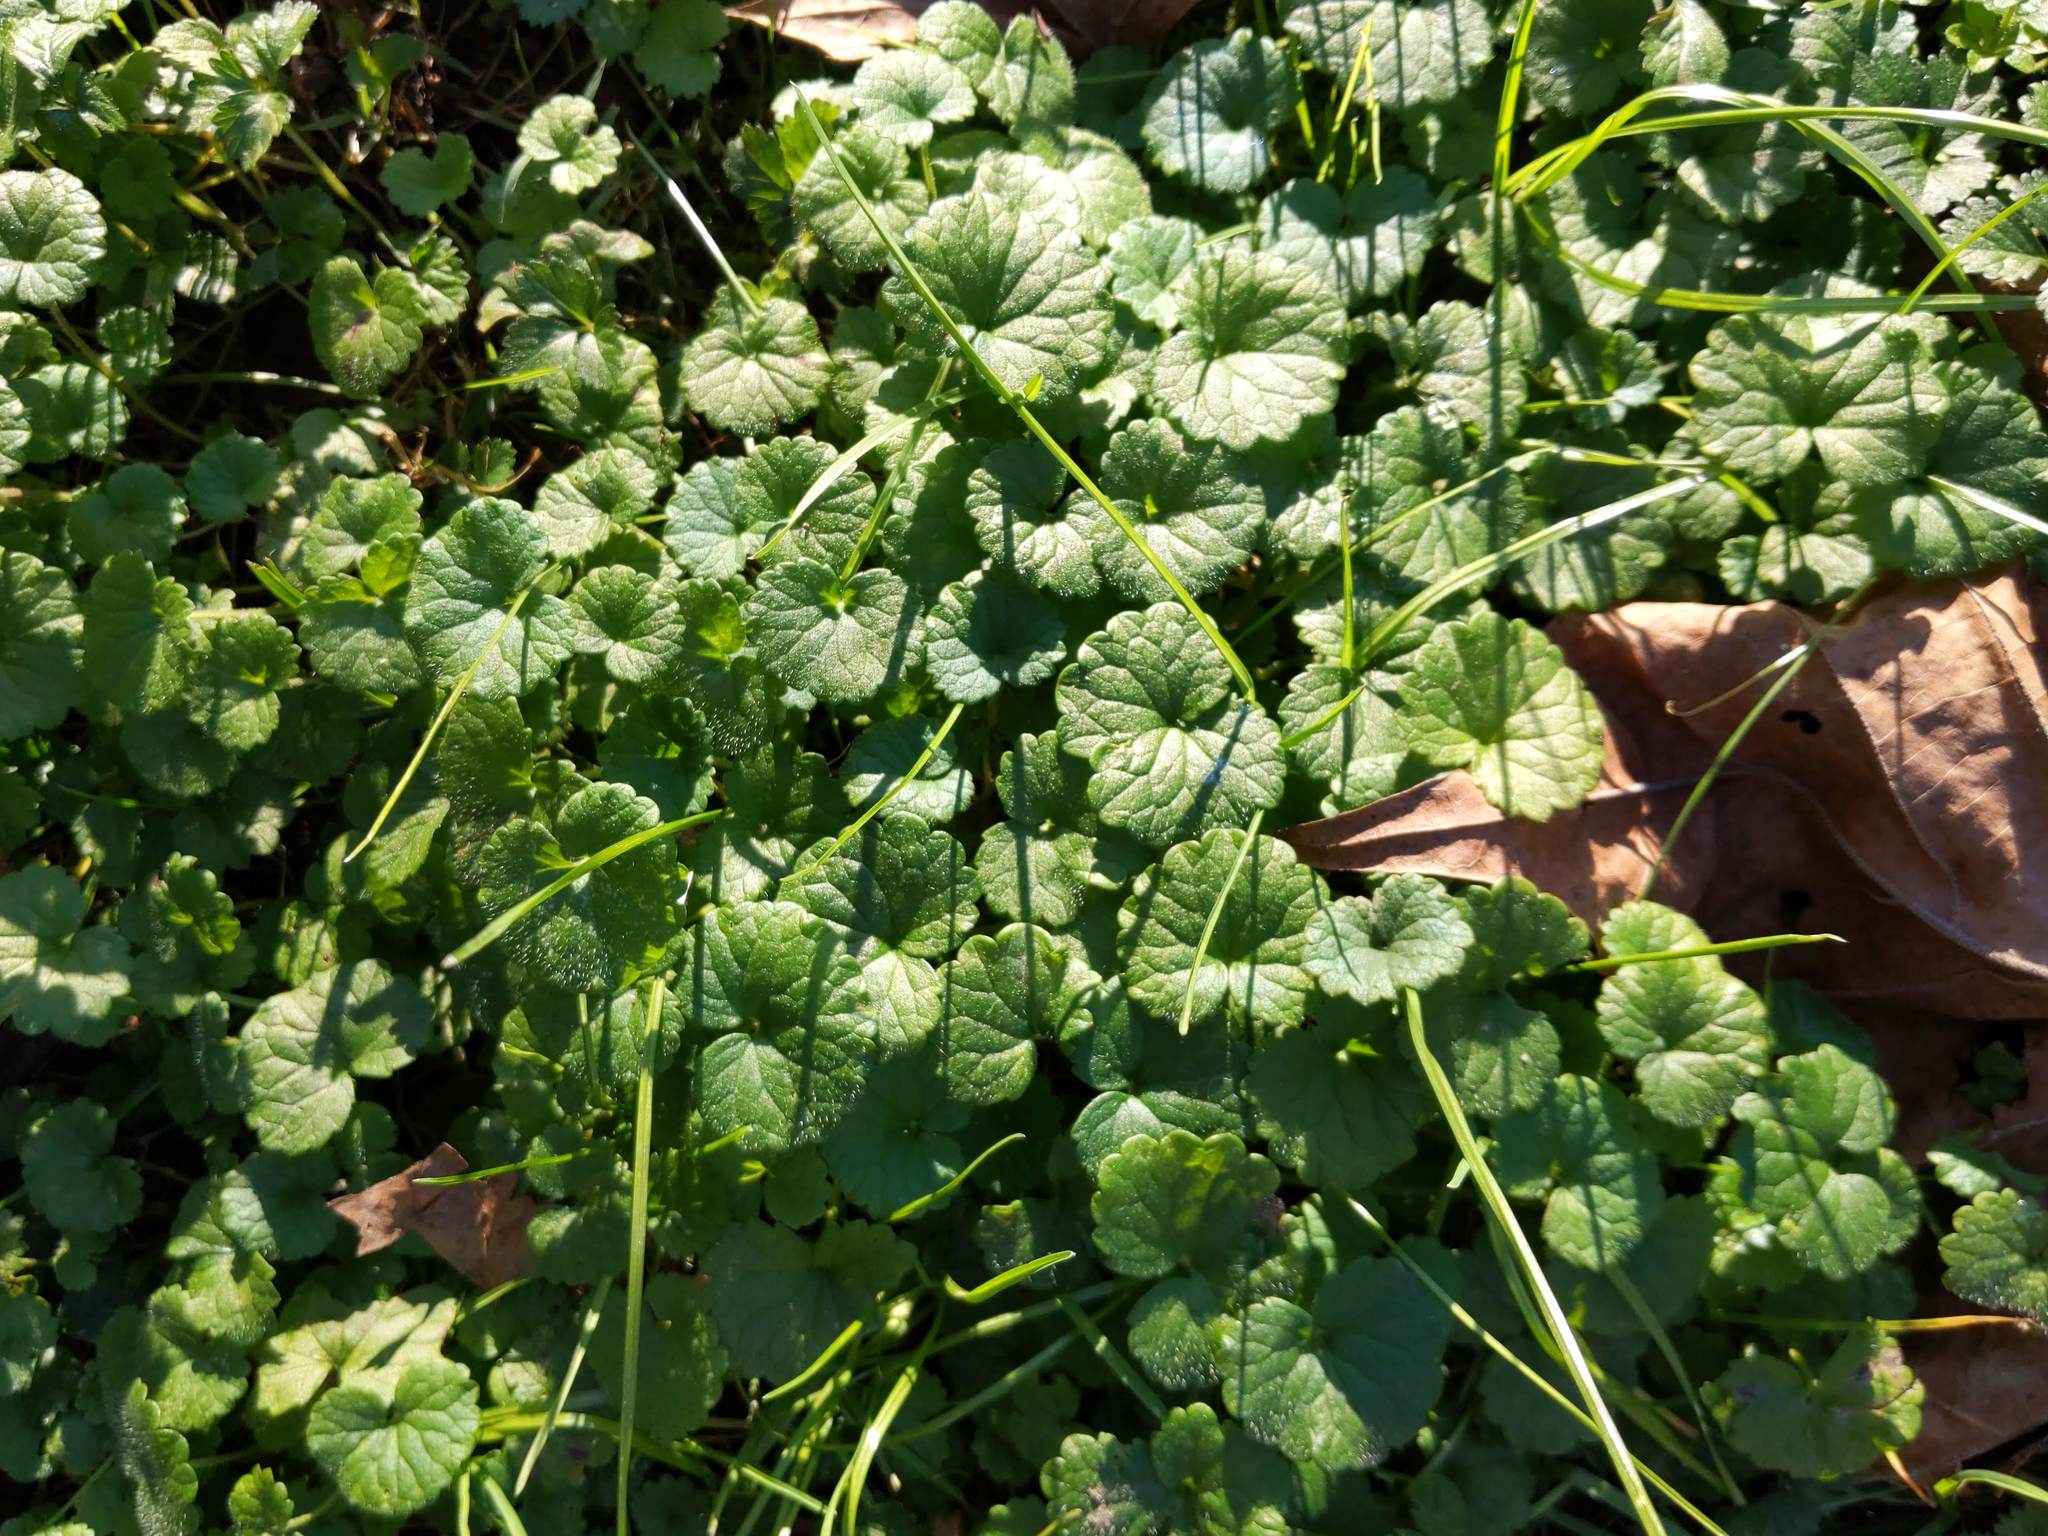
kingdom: Plantae
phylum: Tracheophyta
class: Magnoliopsida
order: Lamiales
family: Lamiaceae
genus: Glechoma
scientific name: Glechoma hederacea
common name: Ground ivy
